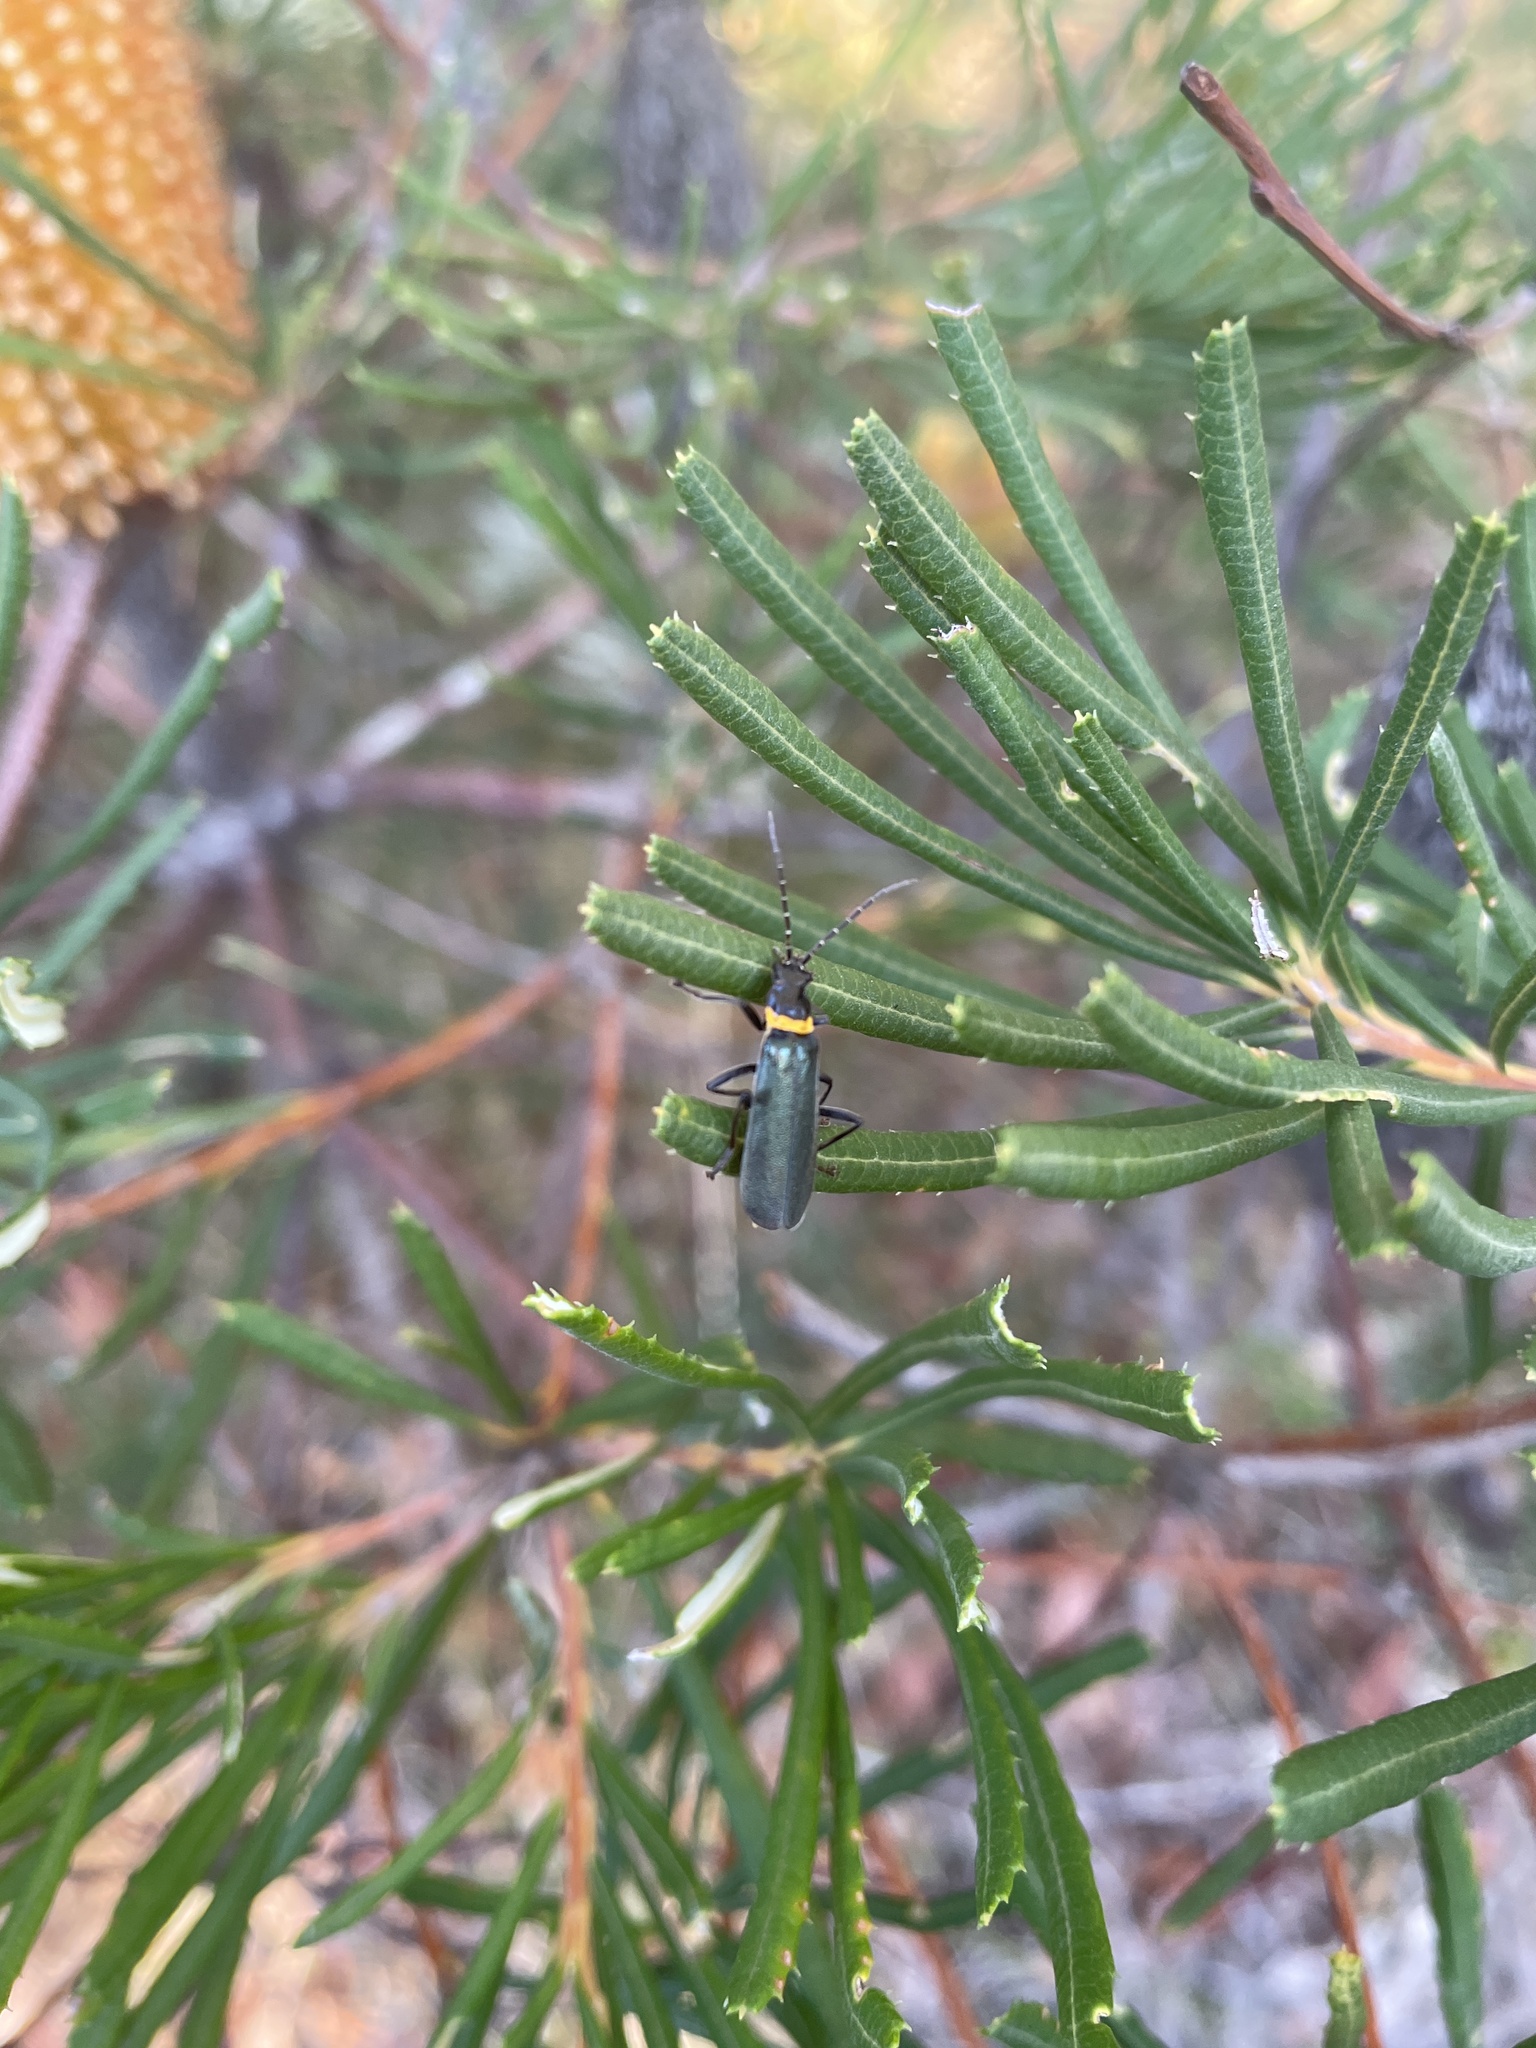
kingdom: Animalia
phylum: Arthropoda
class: Insecta
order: Coleoptera
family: Cantharidae
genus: Chauliognathus
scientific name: Chauliognathus
